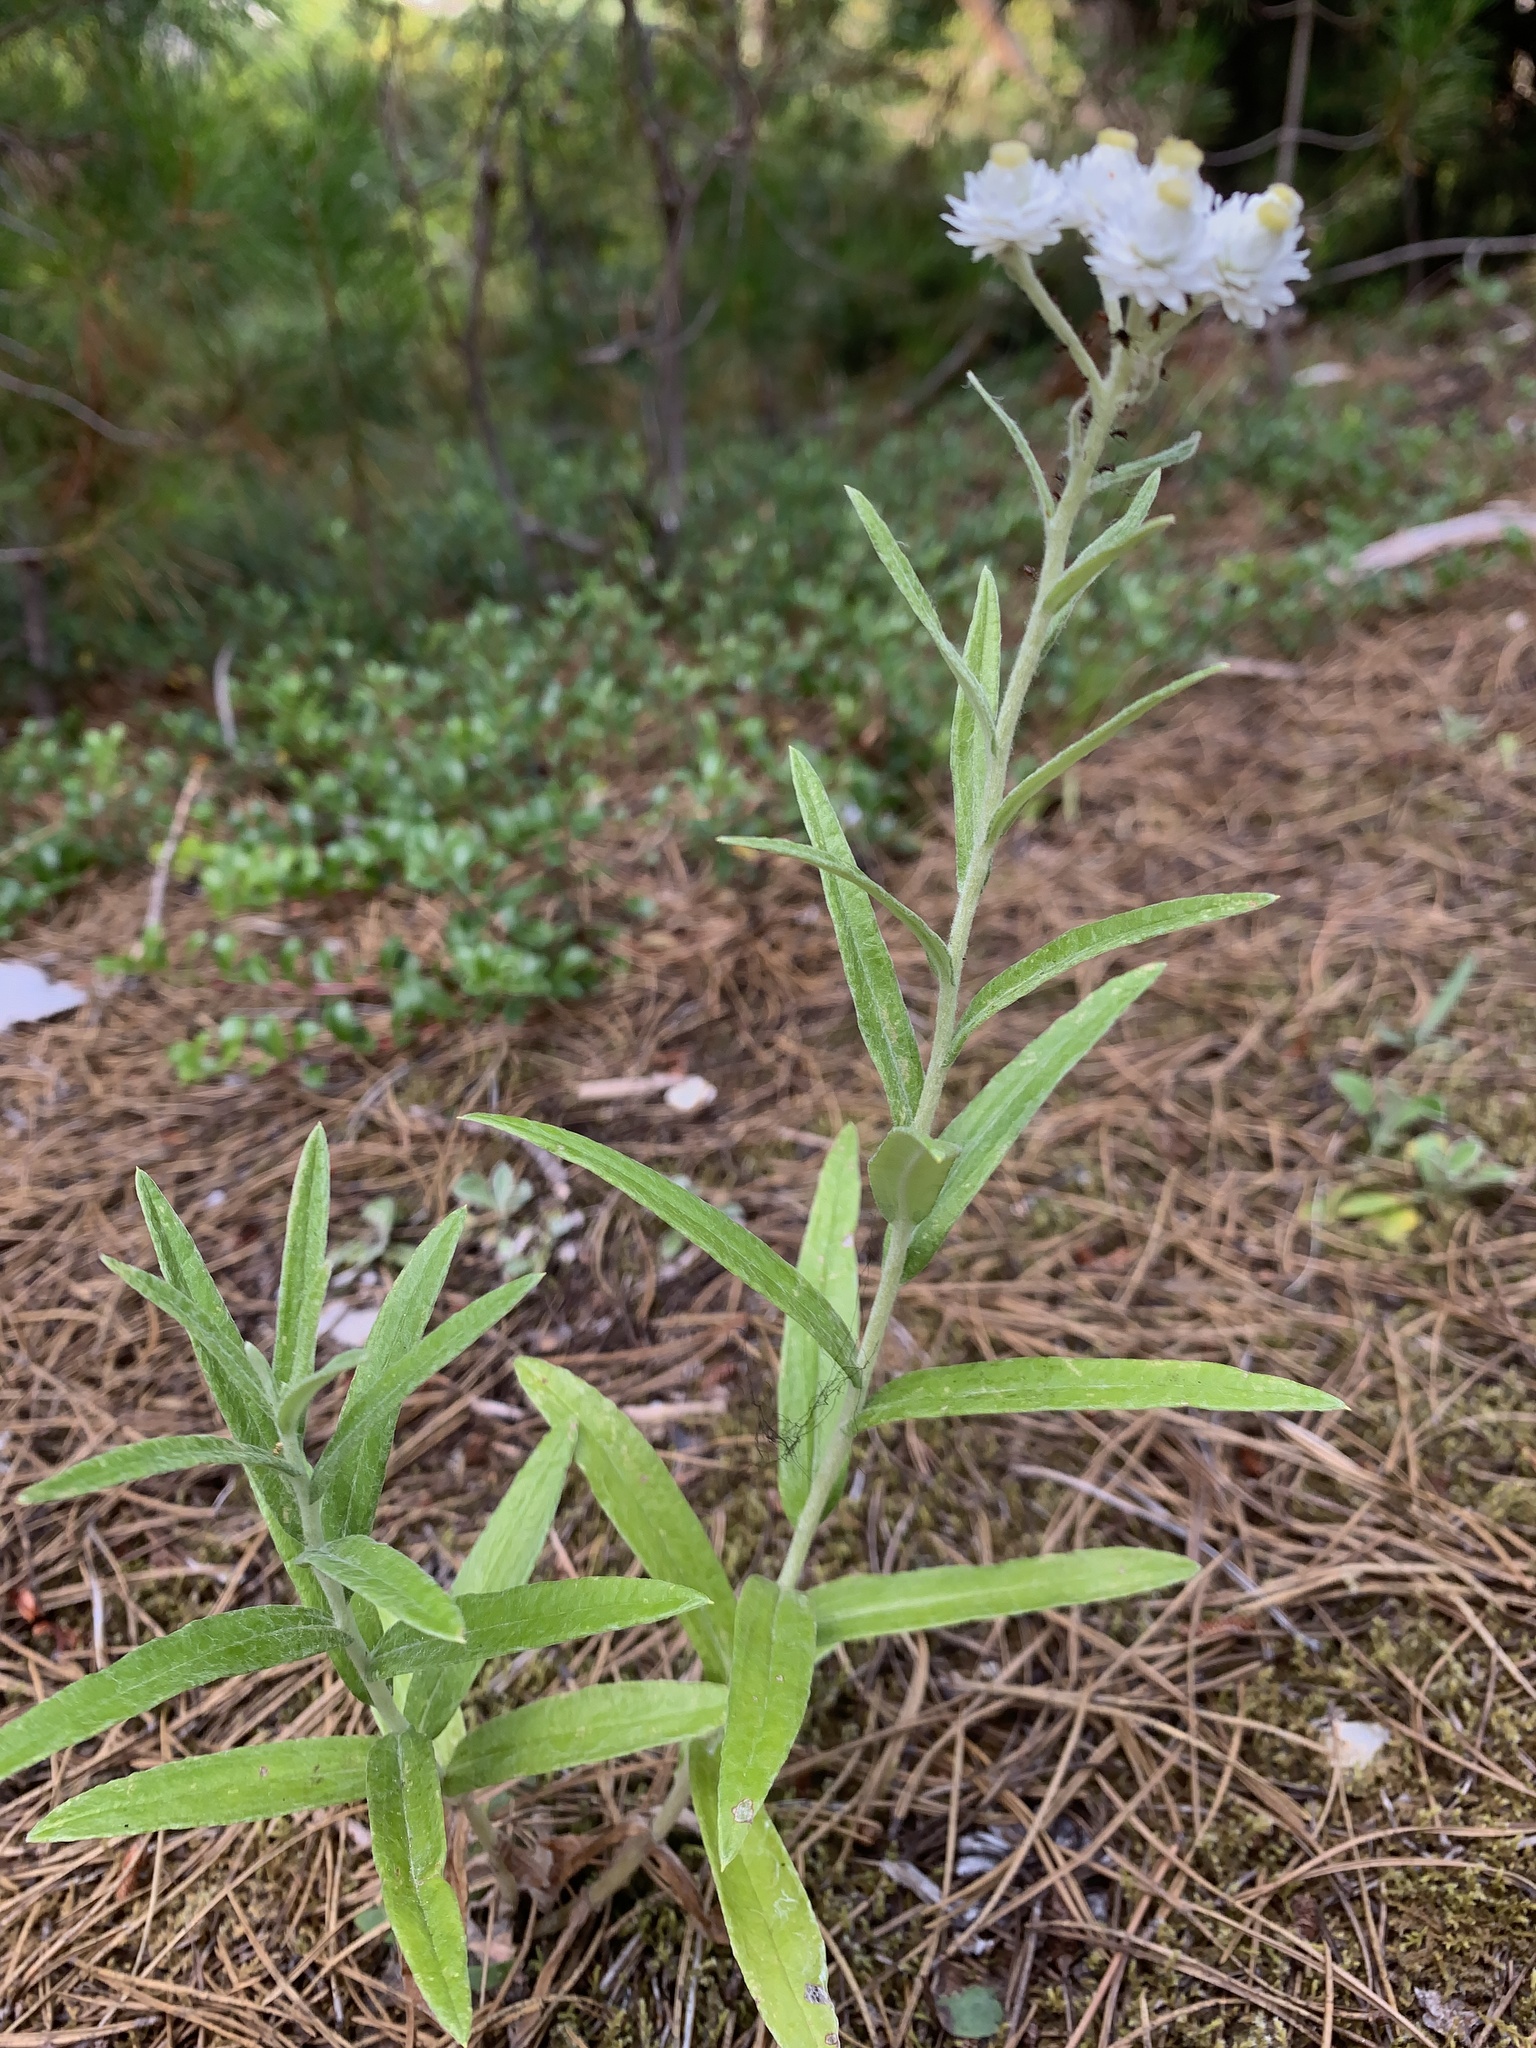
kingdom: Plantae
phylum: Tracheophyta
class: Magnoliopsida
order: Asterales
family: Asteraceae
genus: Anaphalis
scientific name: Anaphalis margaritacea
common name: Pearly everlasting
